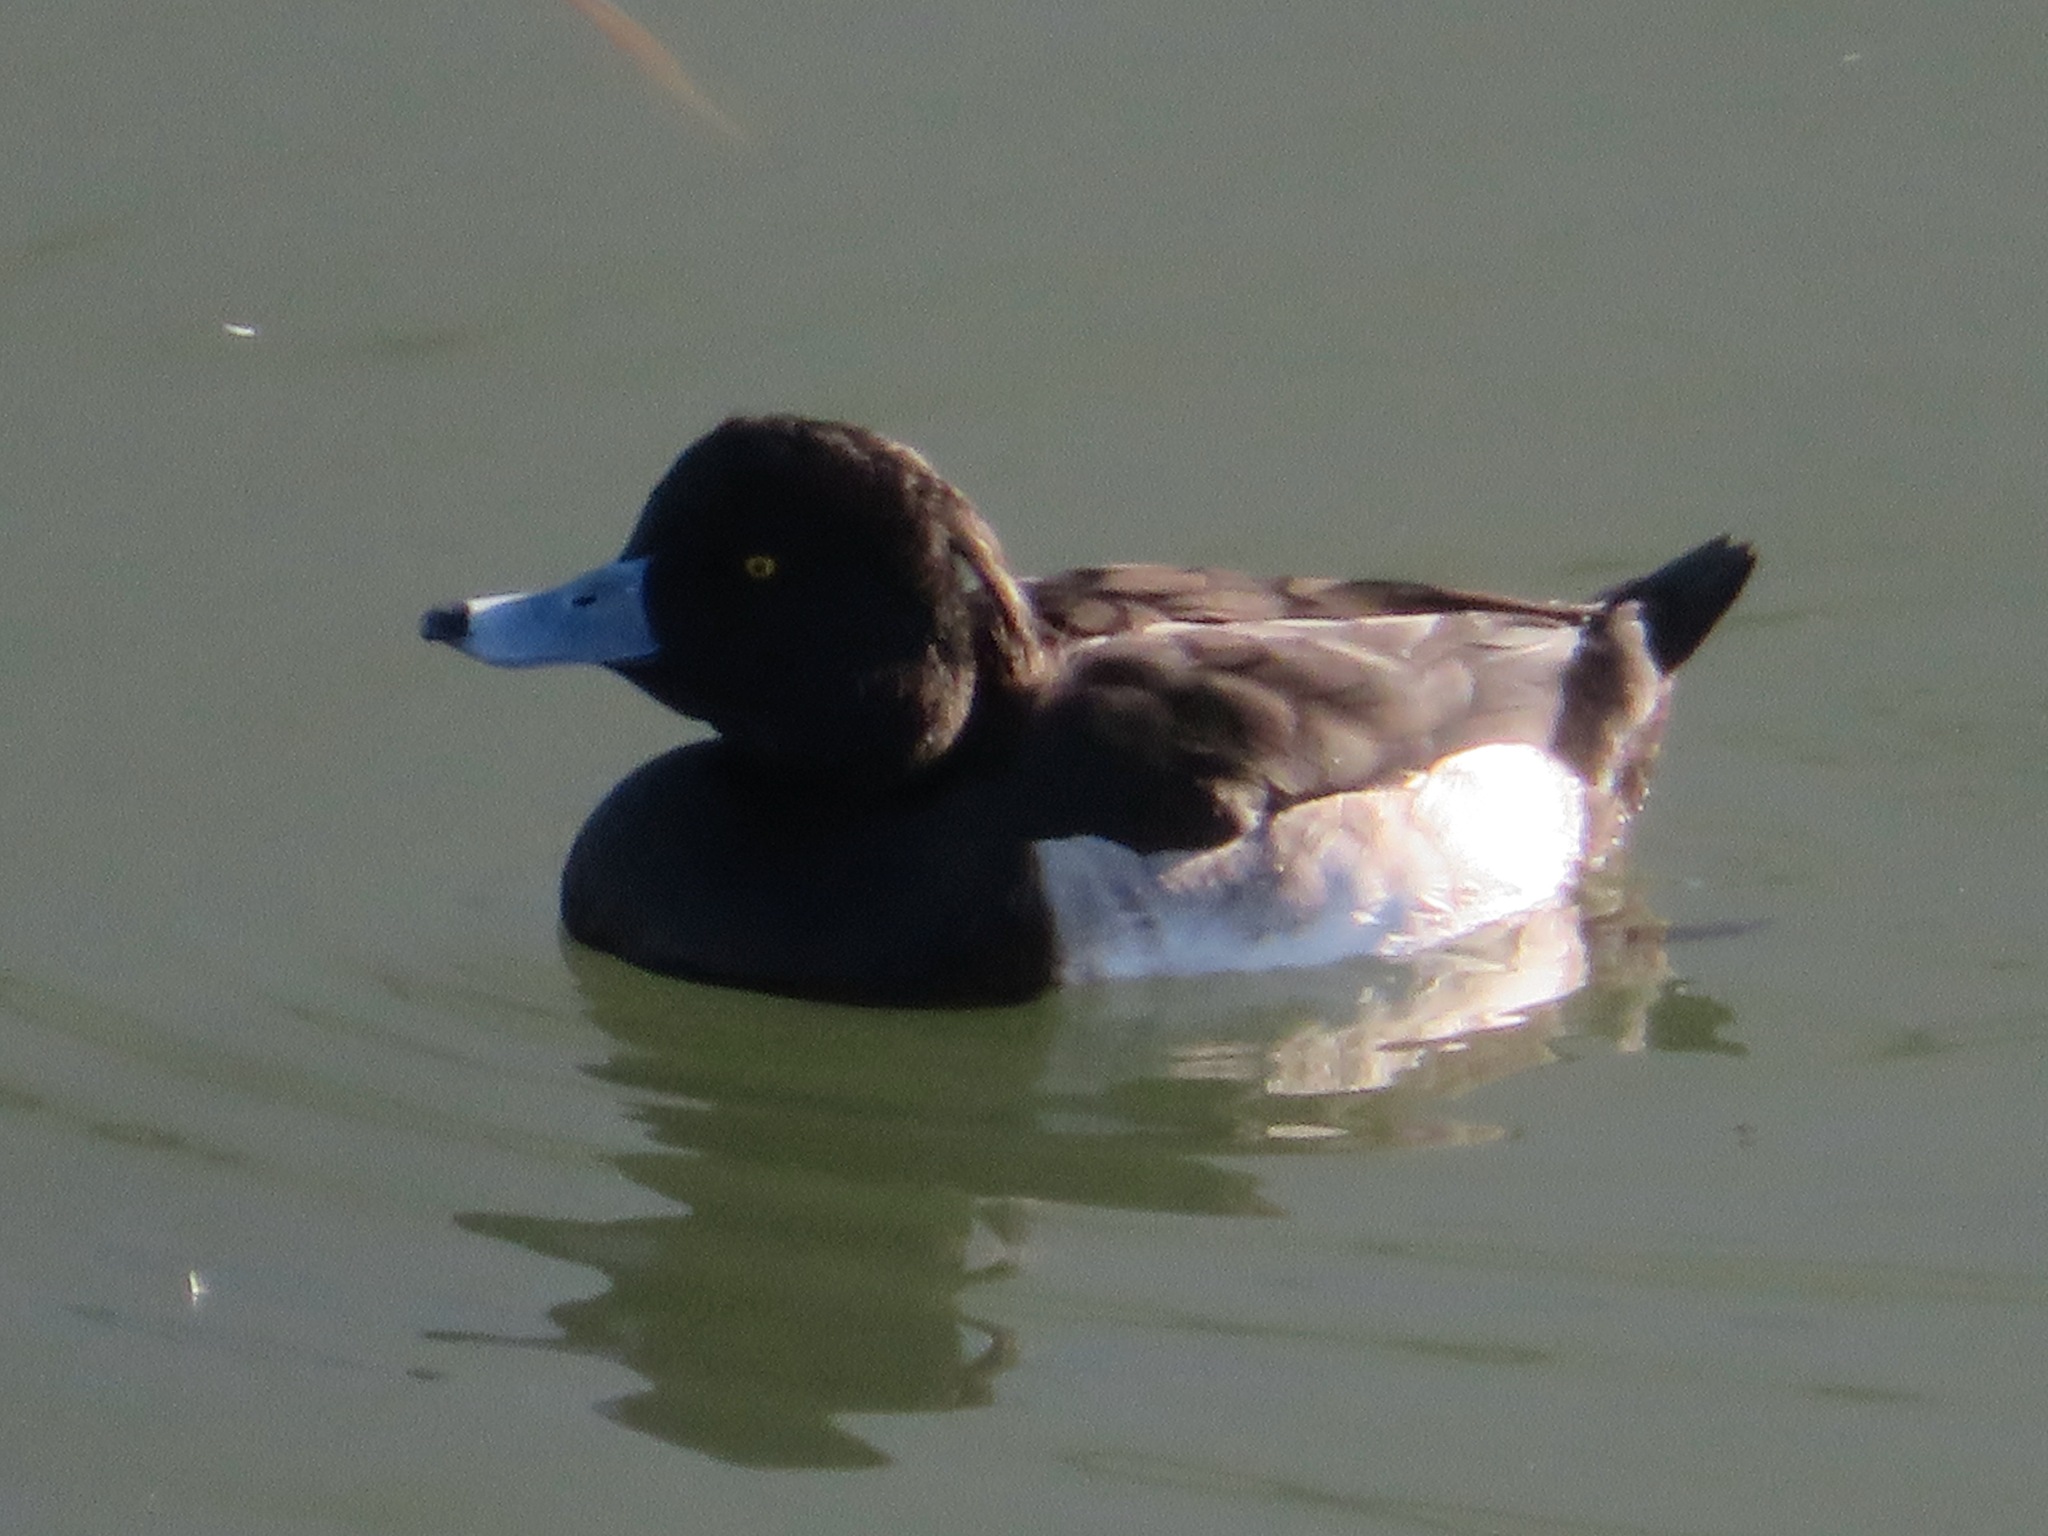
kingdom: Animalia
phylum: Chordata
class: Aves
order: Anseriformes
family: Anatidae
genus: Aythya
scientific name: Aythya fuligula
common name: Tufted duck
